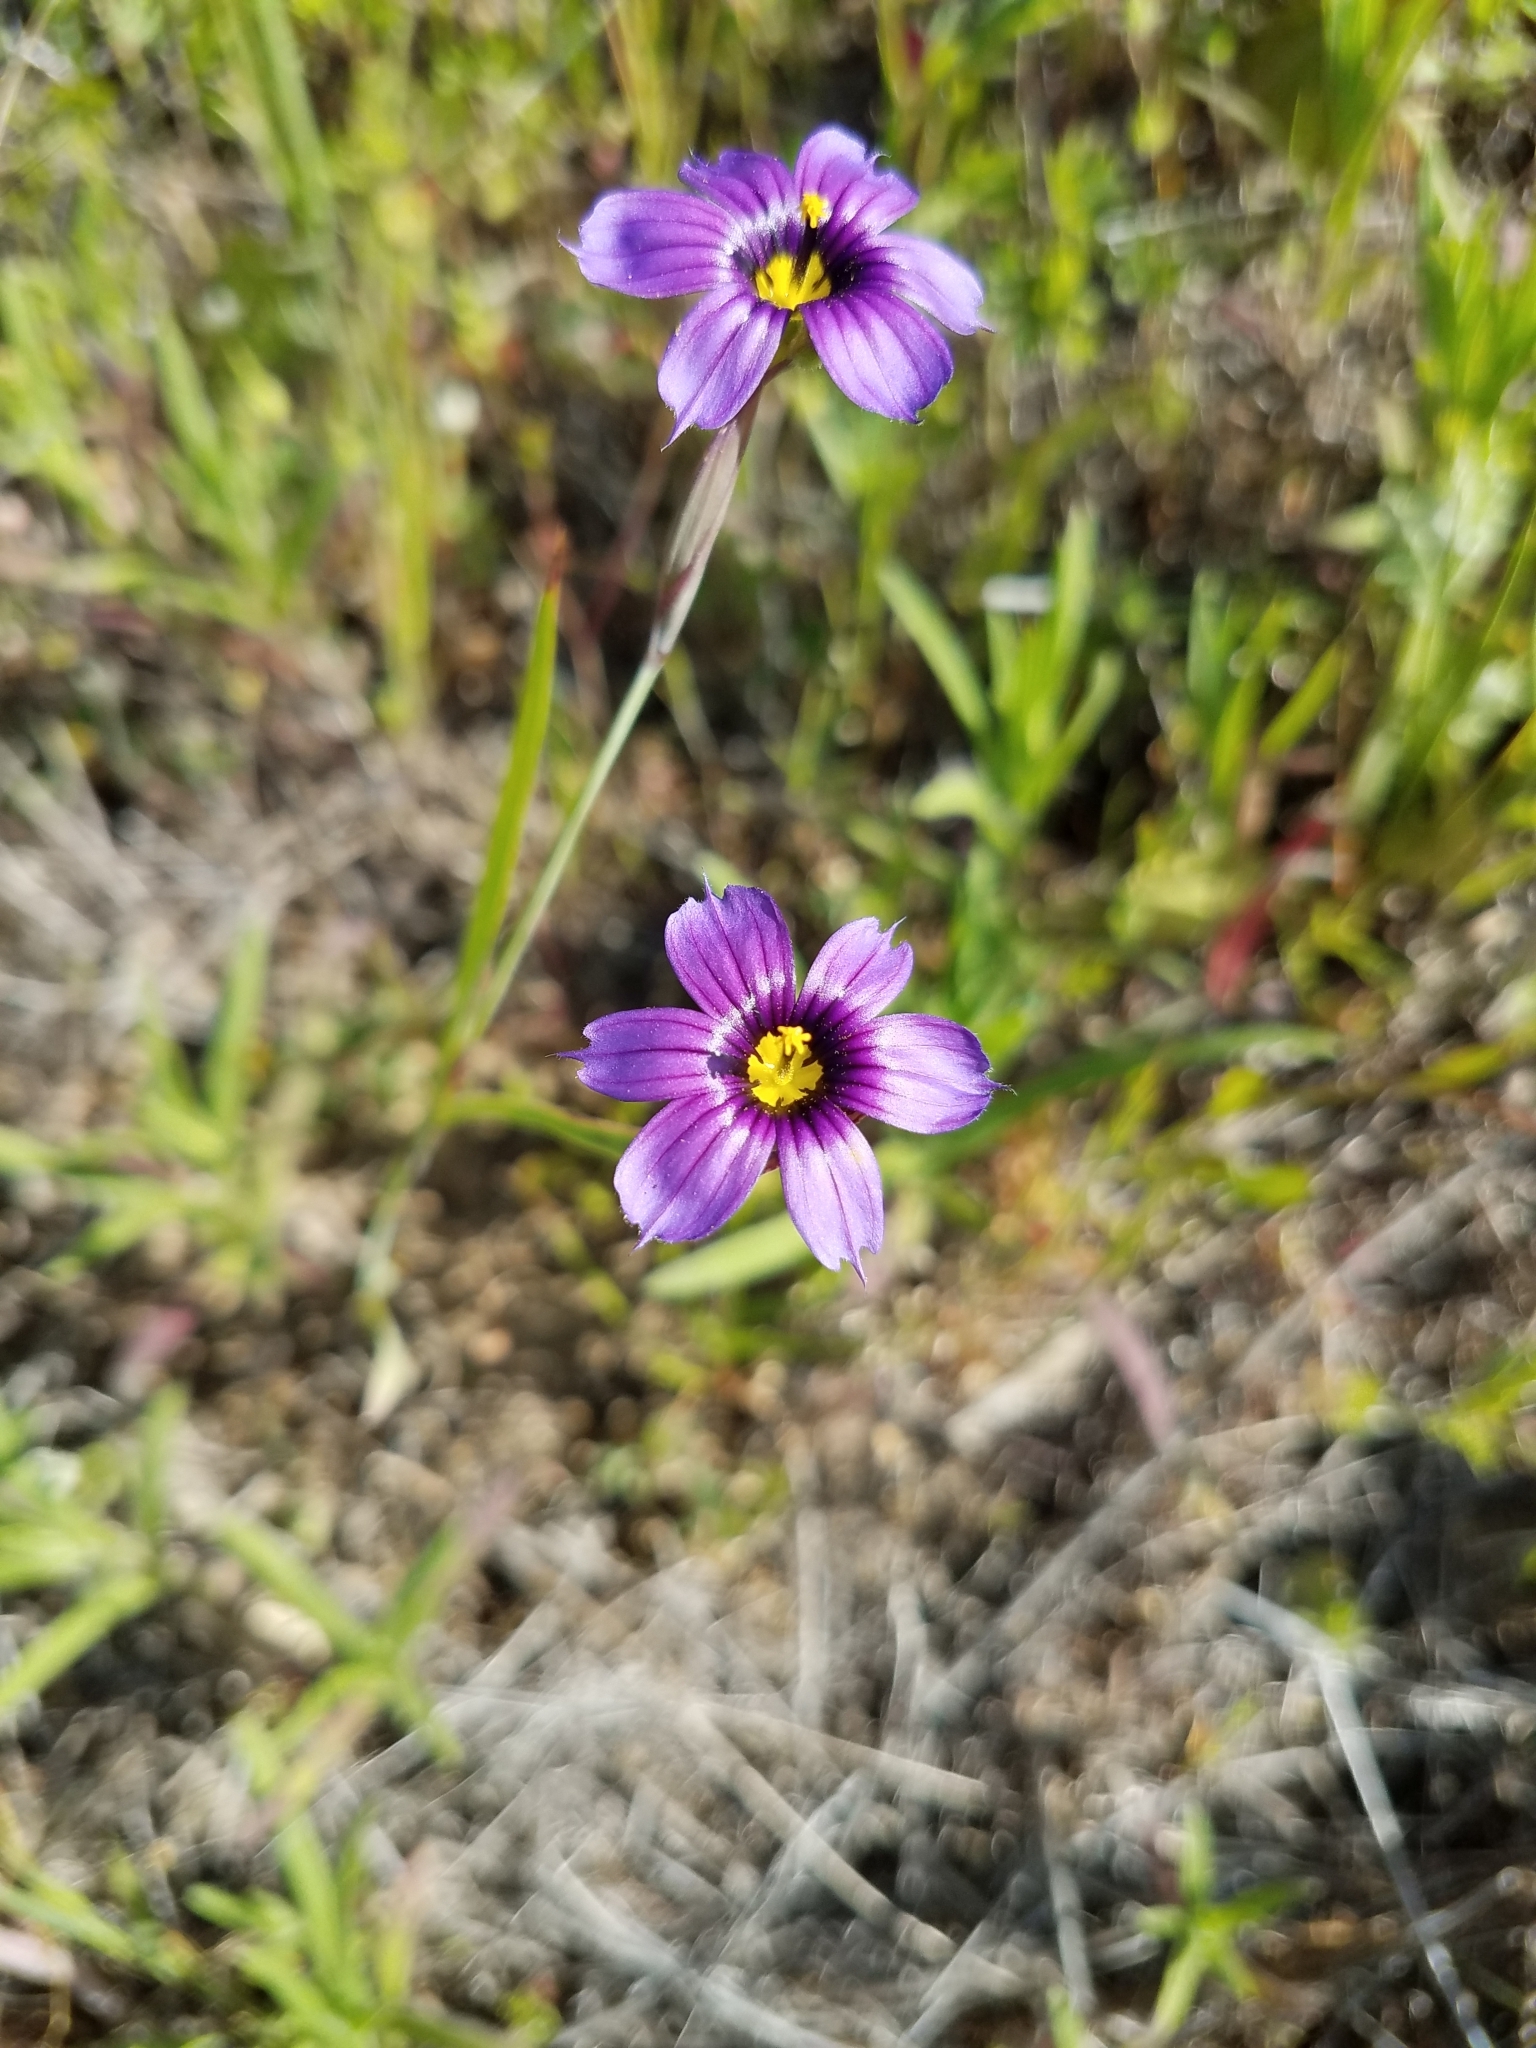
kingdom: Plantae
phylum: Tracheophyta
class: Liliopsida
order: Asparagales
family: Iridaceae
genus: Sisyrinchium
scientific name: Sisyrinchium bellum
